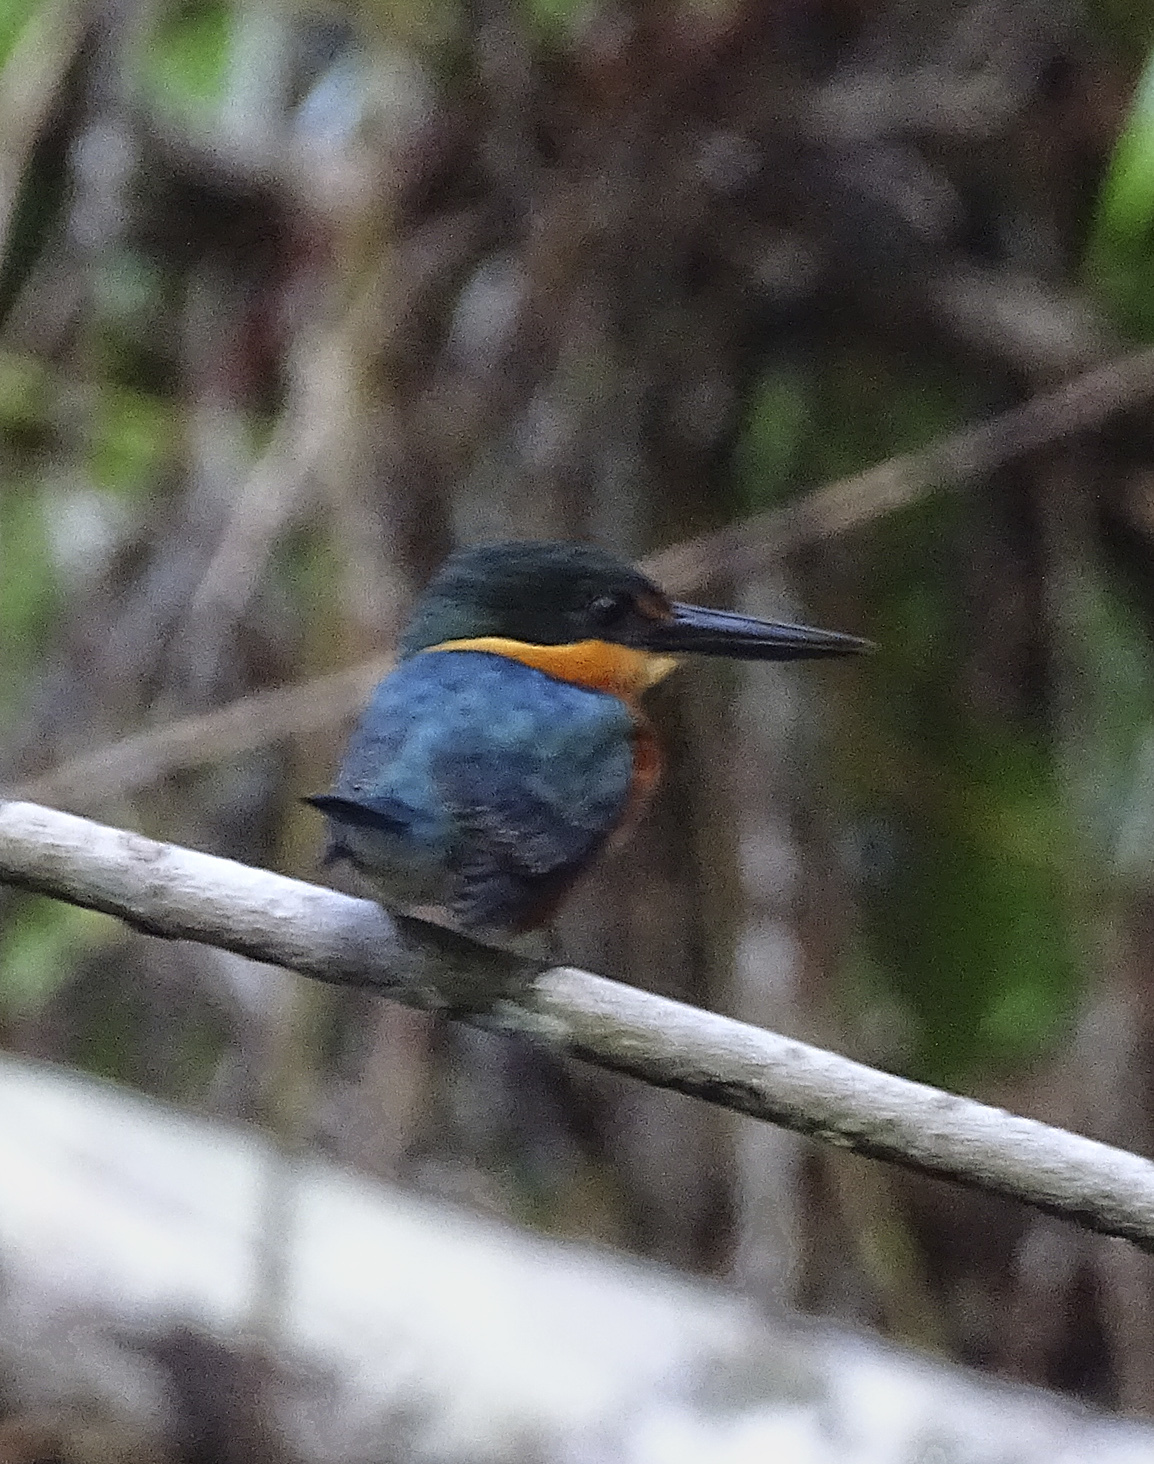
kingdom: Animalia
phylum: Chordata
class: Aves
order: Coraciiformes
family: Alcedinidae
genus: Chloroceryle
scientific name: Chloroceryle aenea
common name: American pygmy kingfisher
